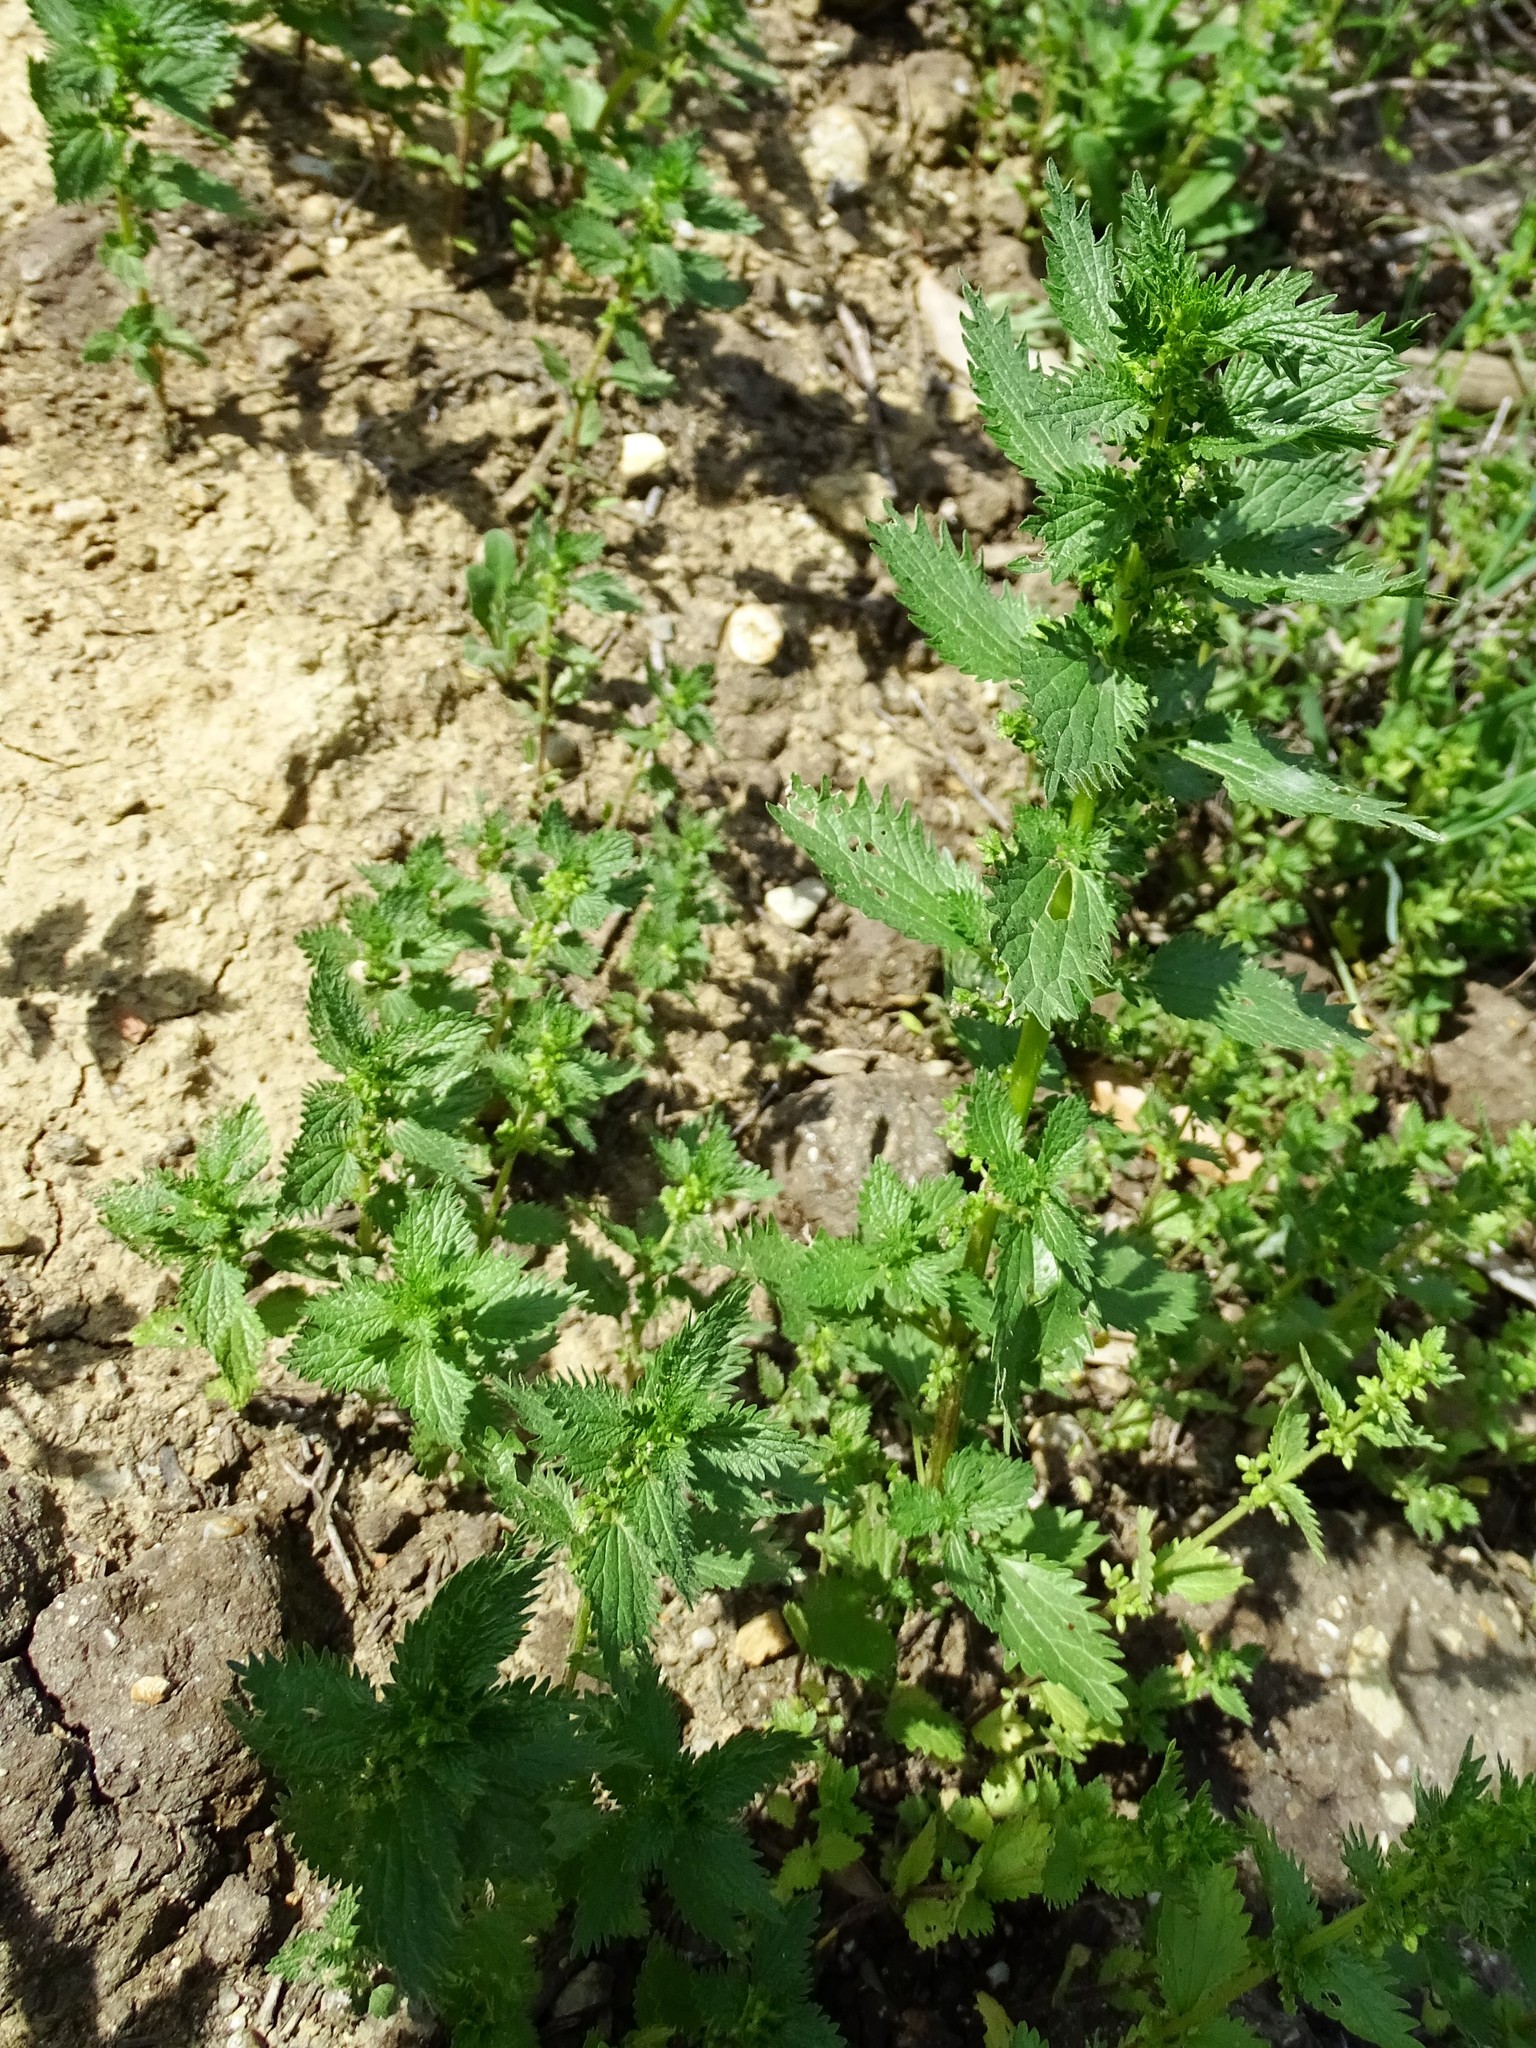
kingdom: Plantae
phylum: Tracheophyta
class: Magnoliopsida
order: Rosales
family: Urticaceae
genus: Urtica
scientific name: Urtica urens
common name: Dwarf nettle
